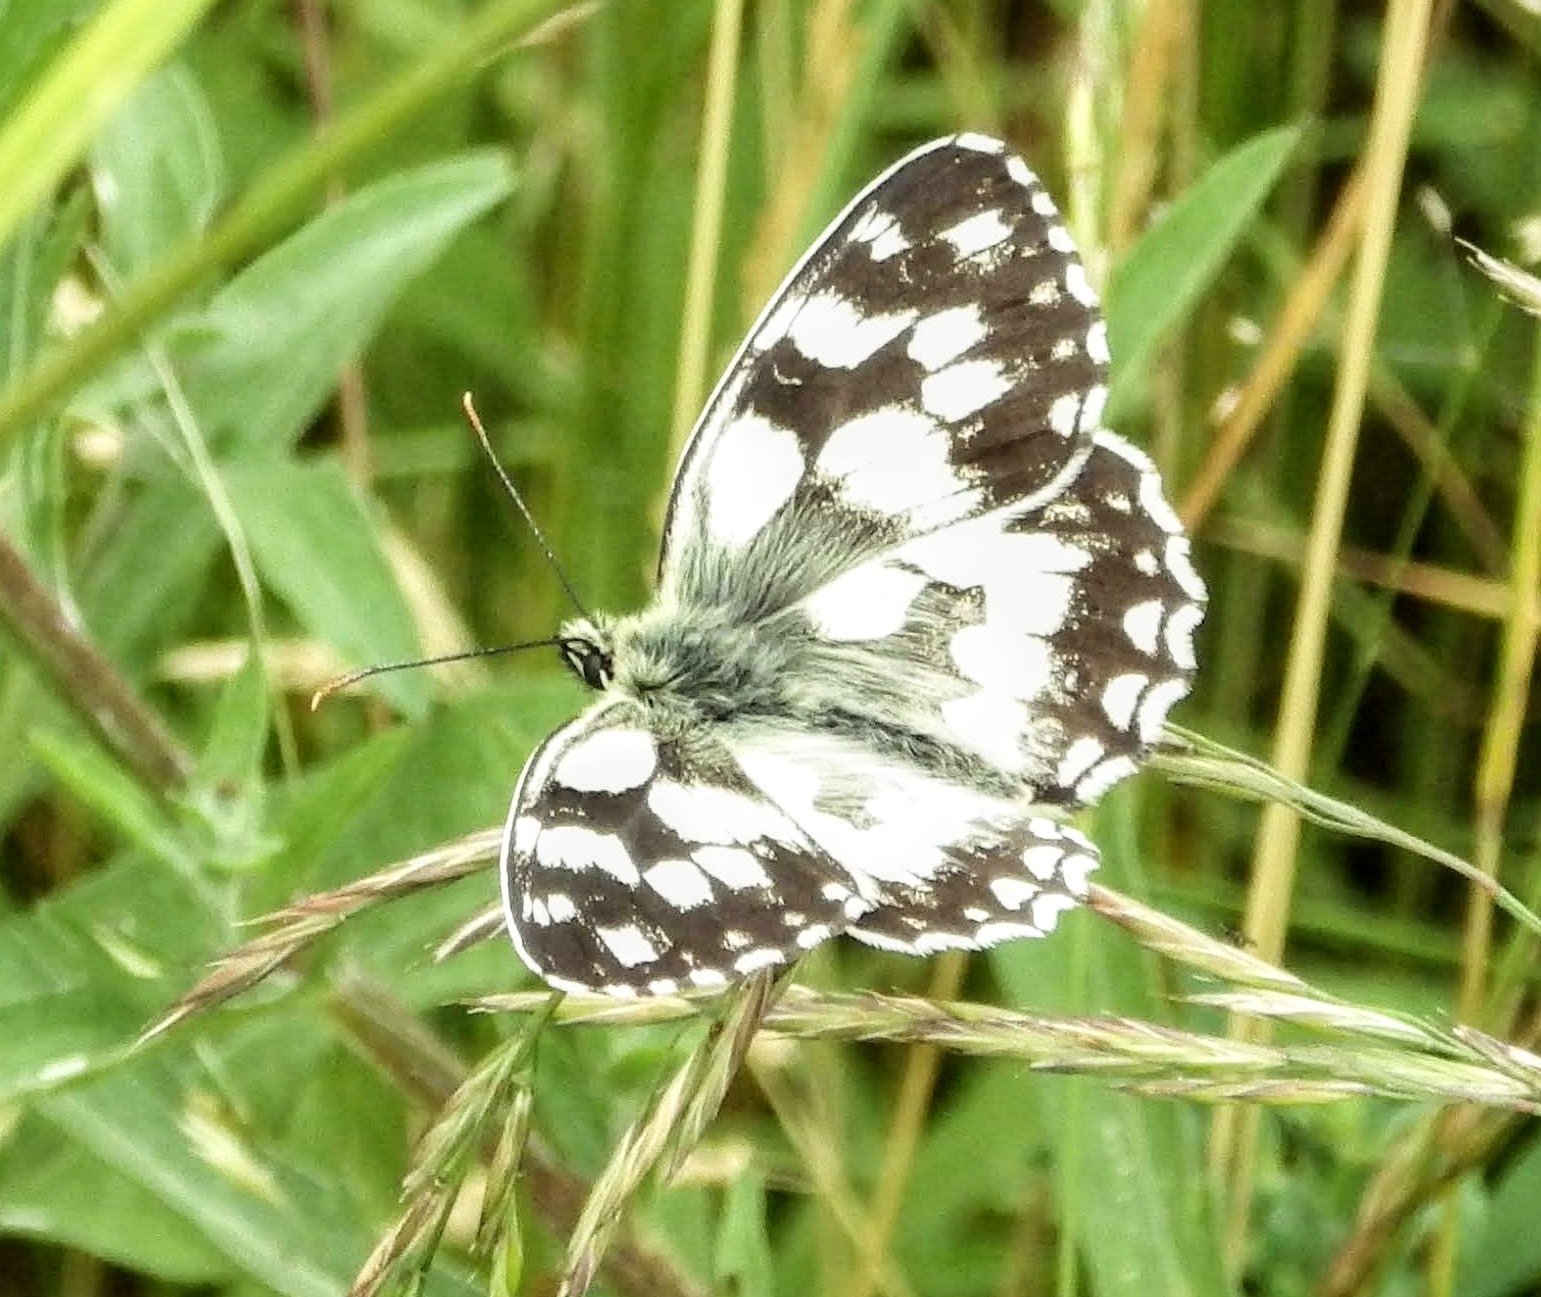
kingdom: Animalia
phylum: Arthropoda
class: Insecta
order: Lepidoptera
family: Nymphalidae
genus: Melanargia
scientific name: Melanargia galathea
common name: Marbled white
